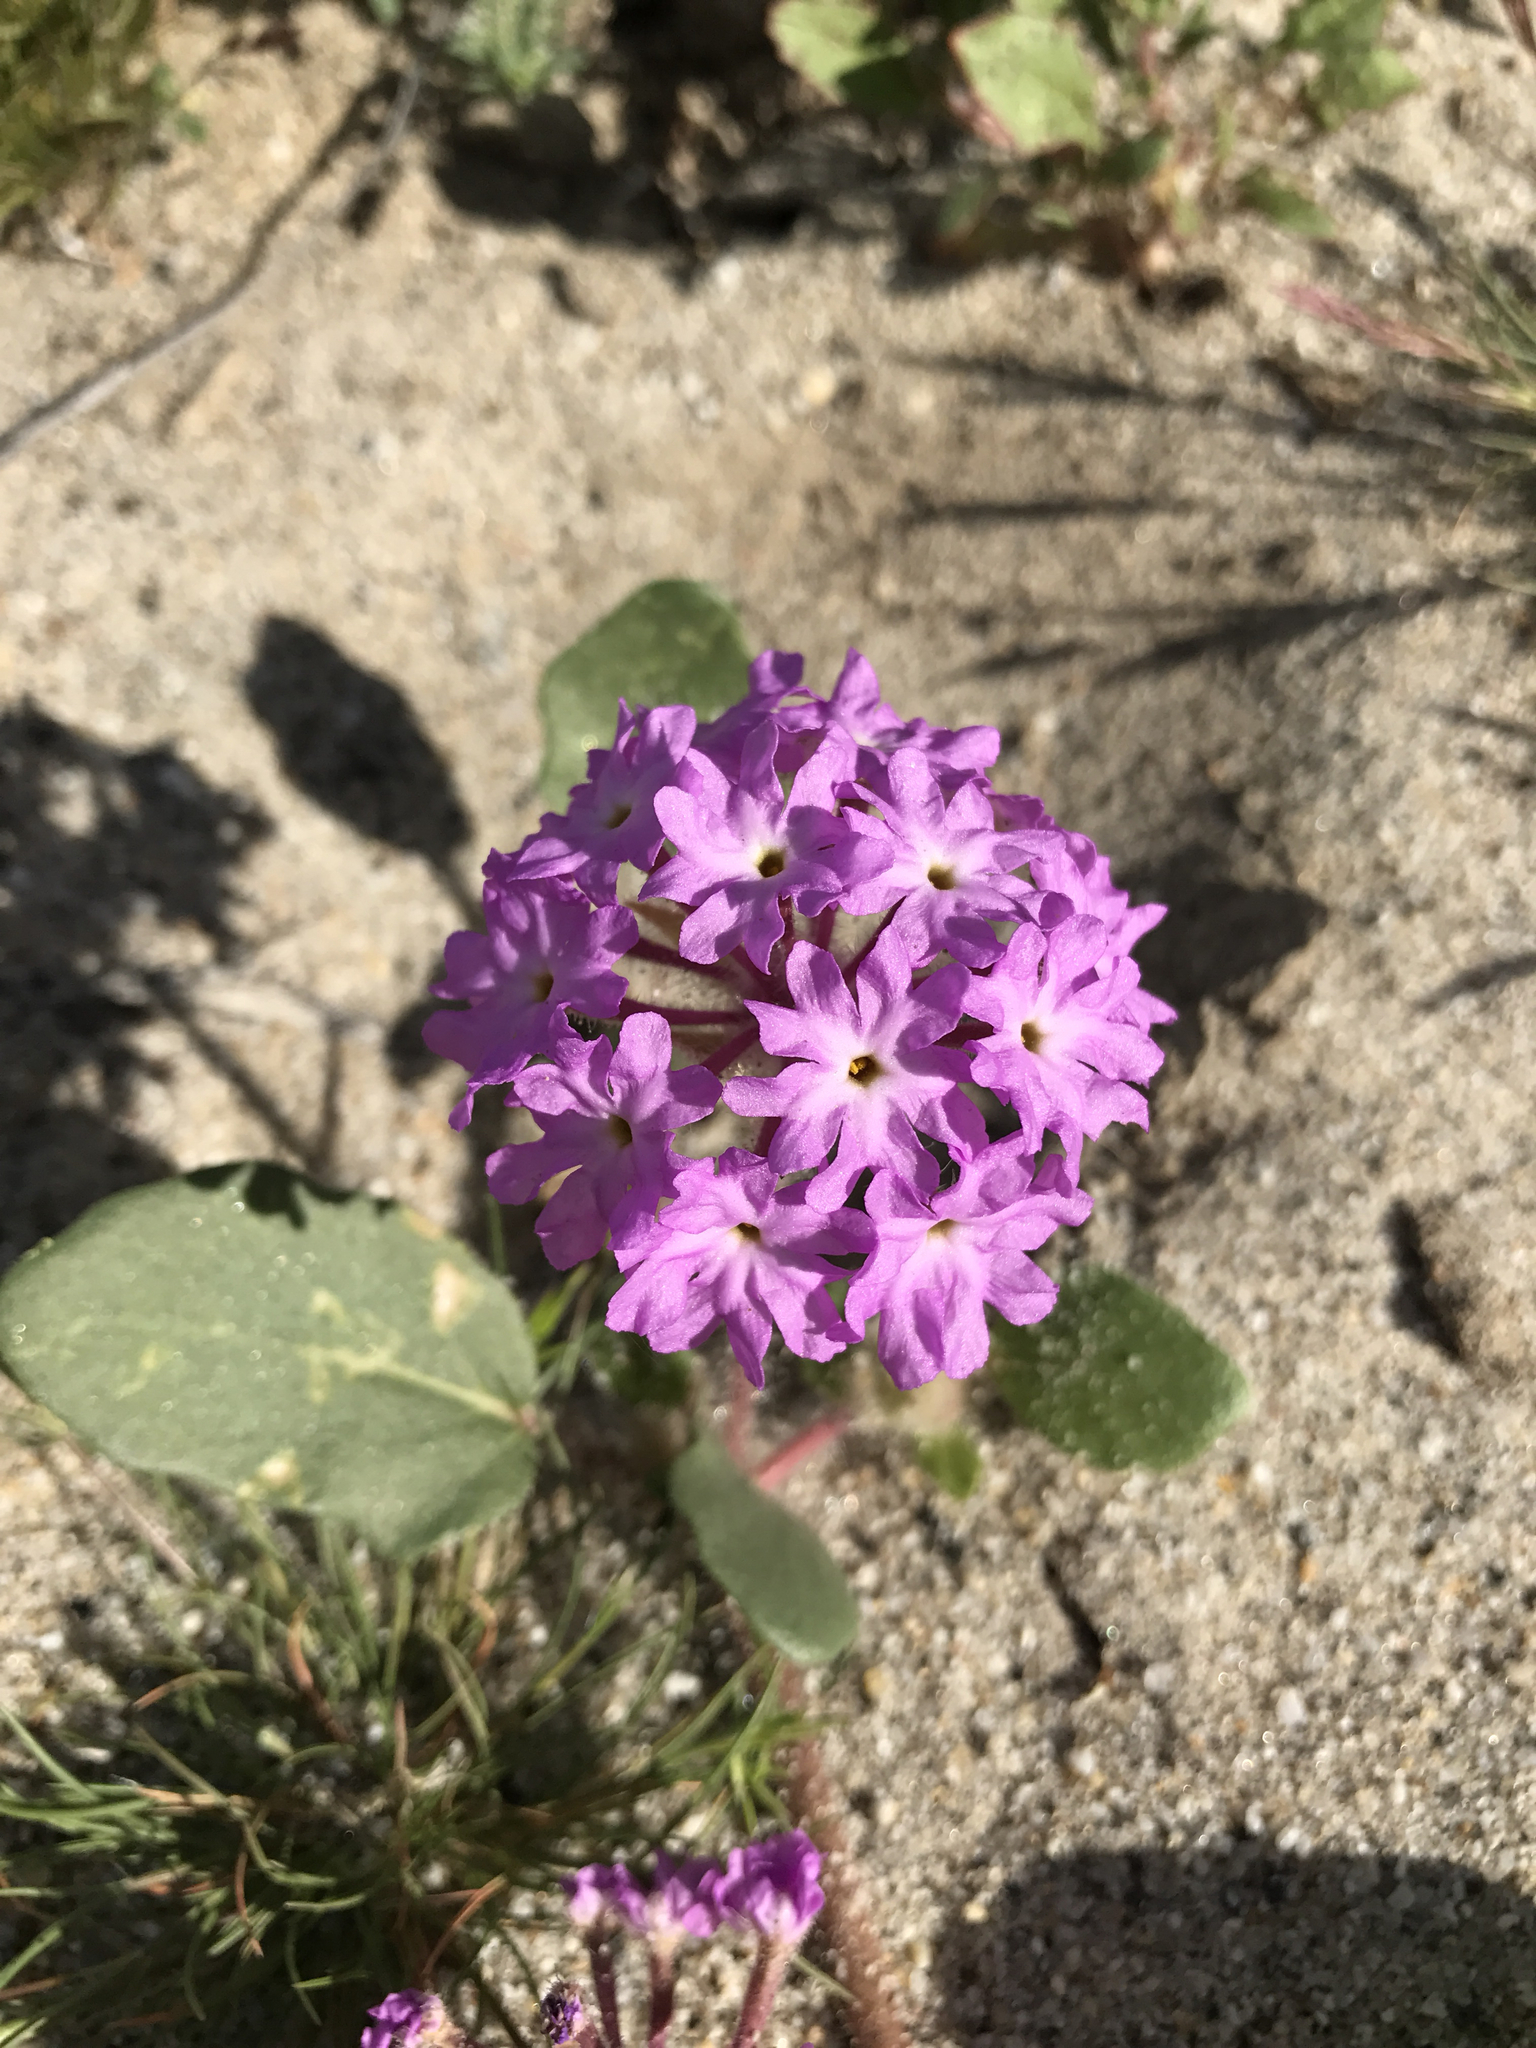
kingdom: Plantae
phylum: Tracheophyta
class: Magnoliopsida
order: Caryophyllales
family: Nyctaginaceae
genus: Abronia
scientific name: Abronia villosa
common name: Desert sand-verbena
